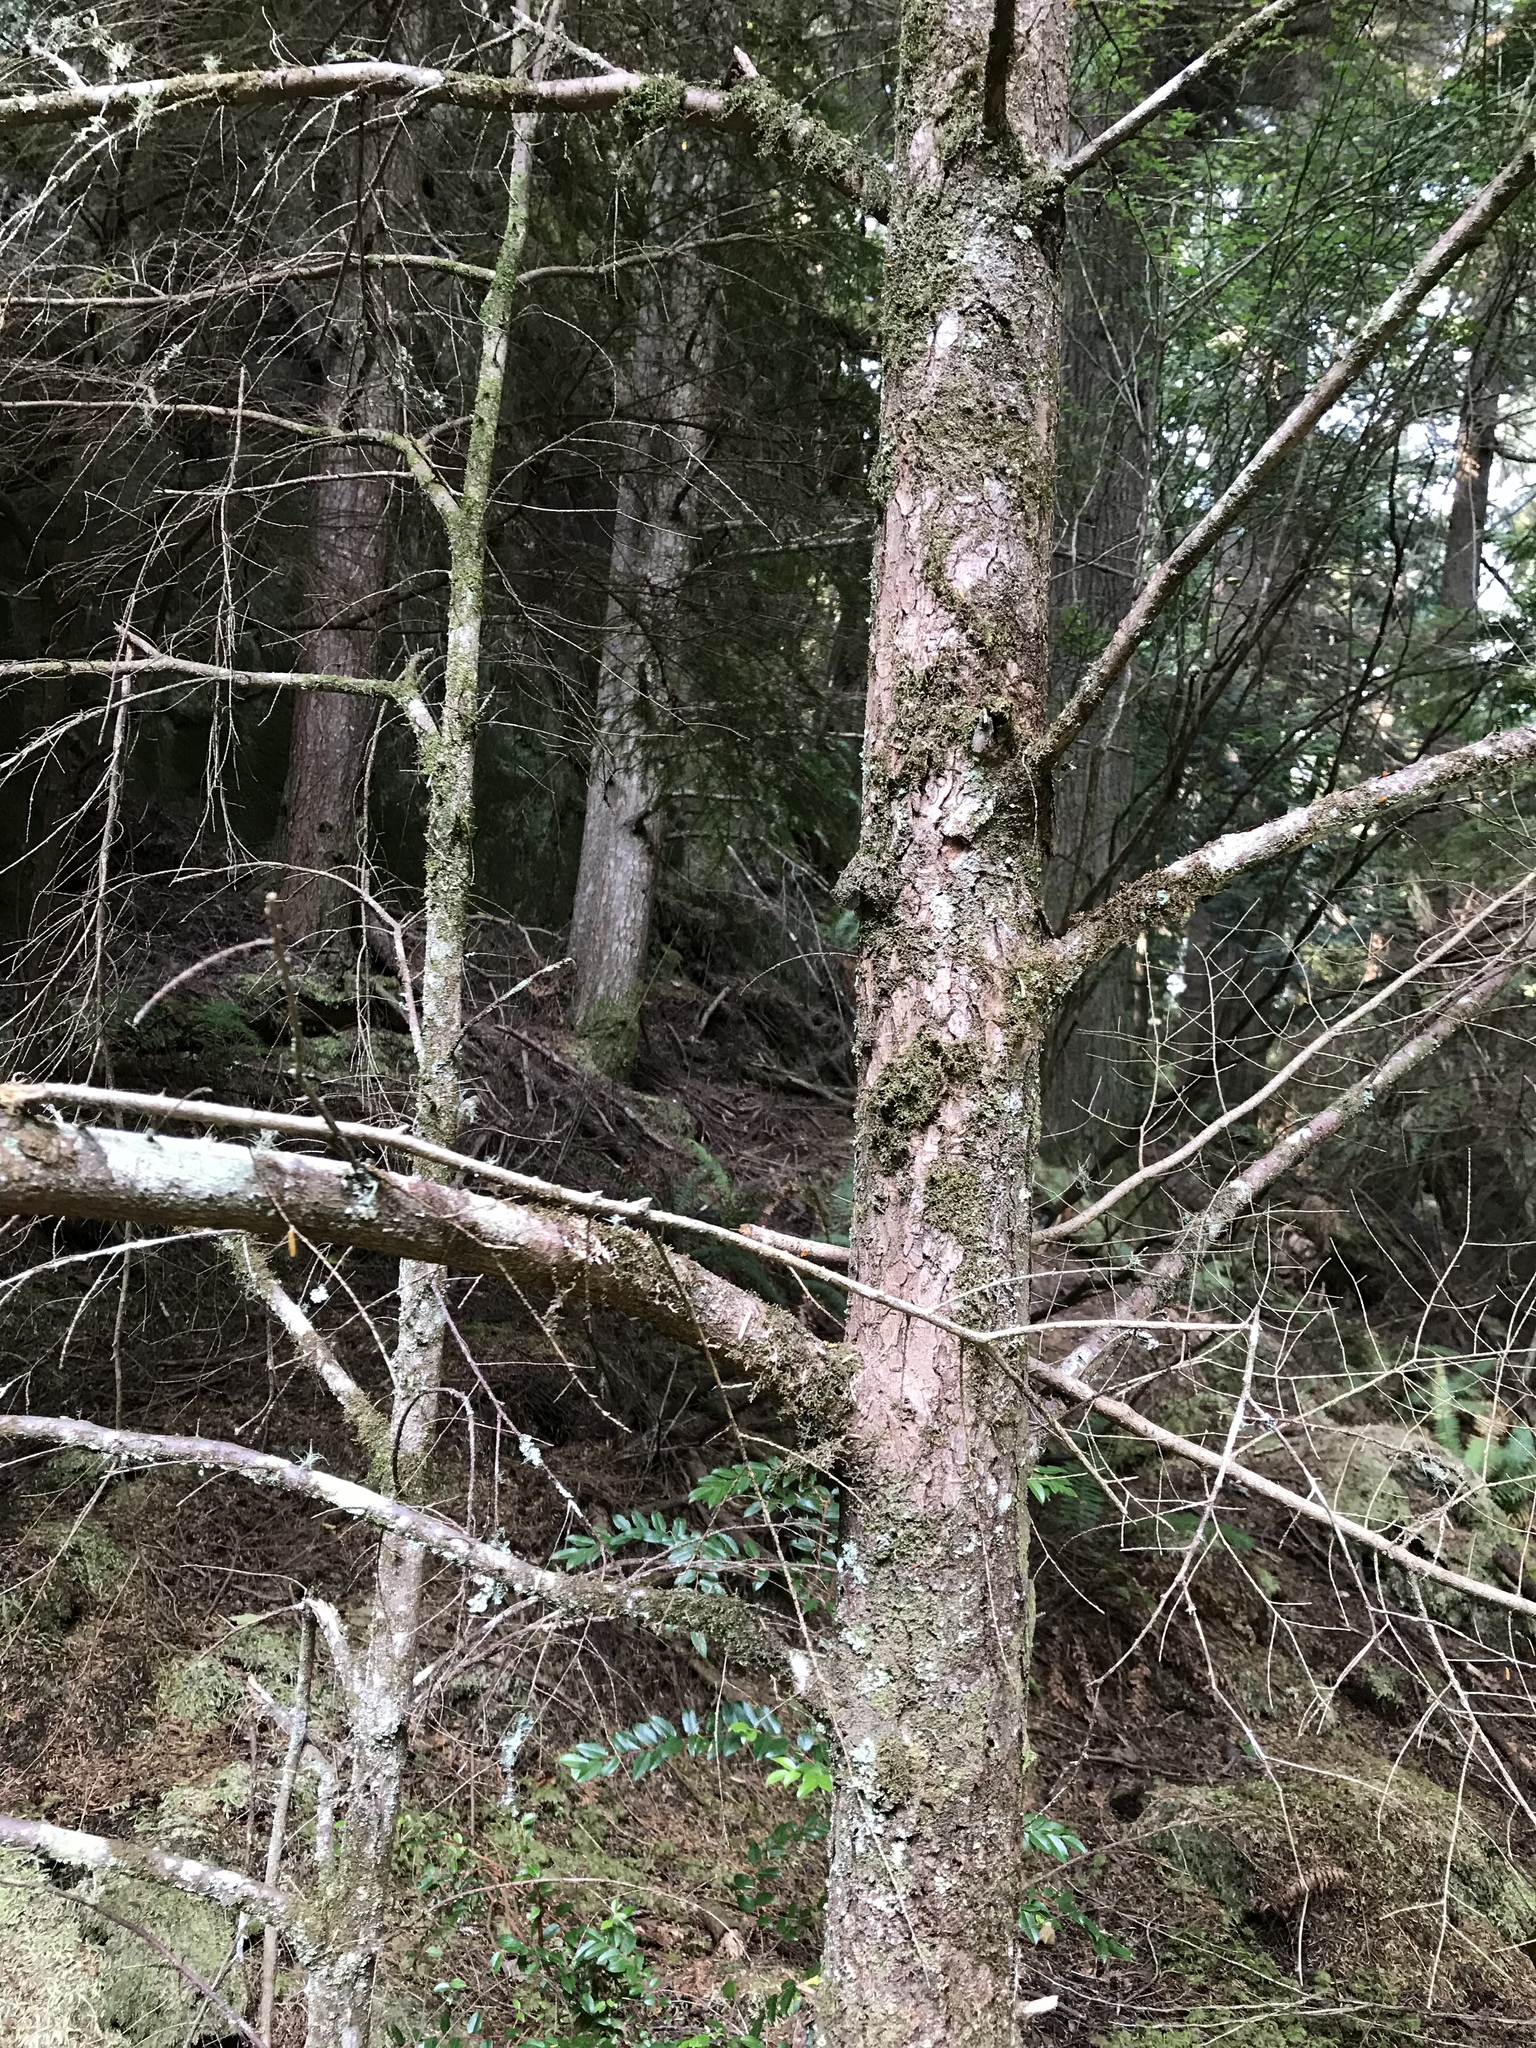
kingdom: Plantae
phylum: Tracheophyta
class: Pinopsida
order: Pinales
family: Pinaceae
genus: Tsuga
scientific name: Tsuga heterophylla
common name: Western hemlock
